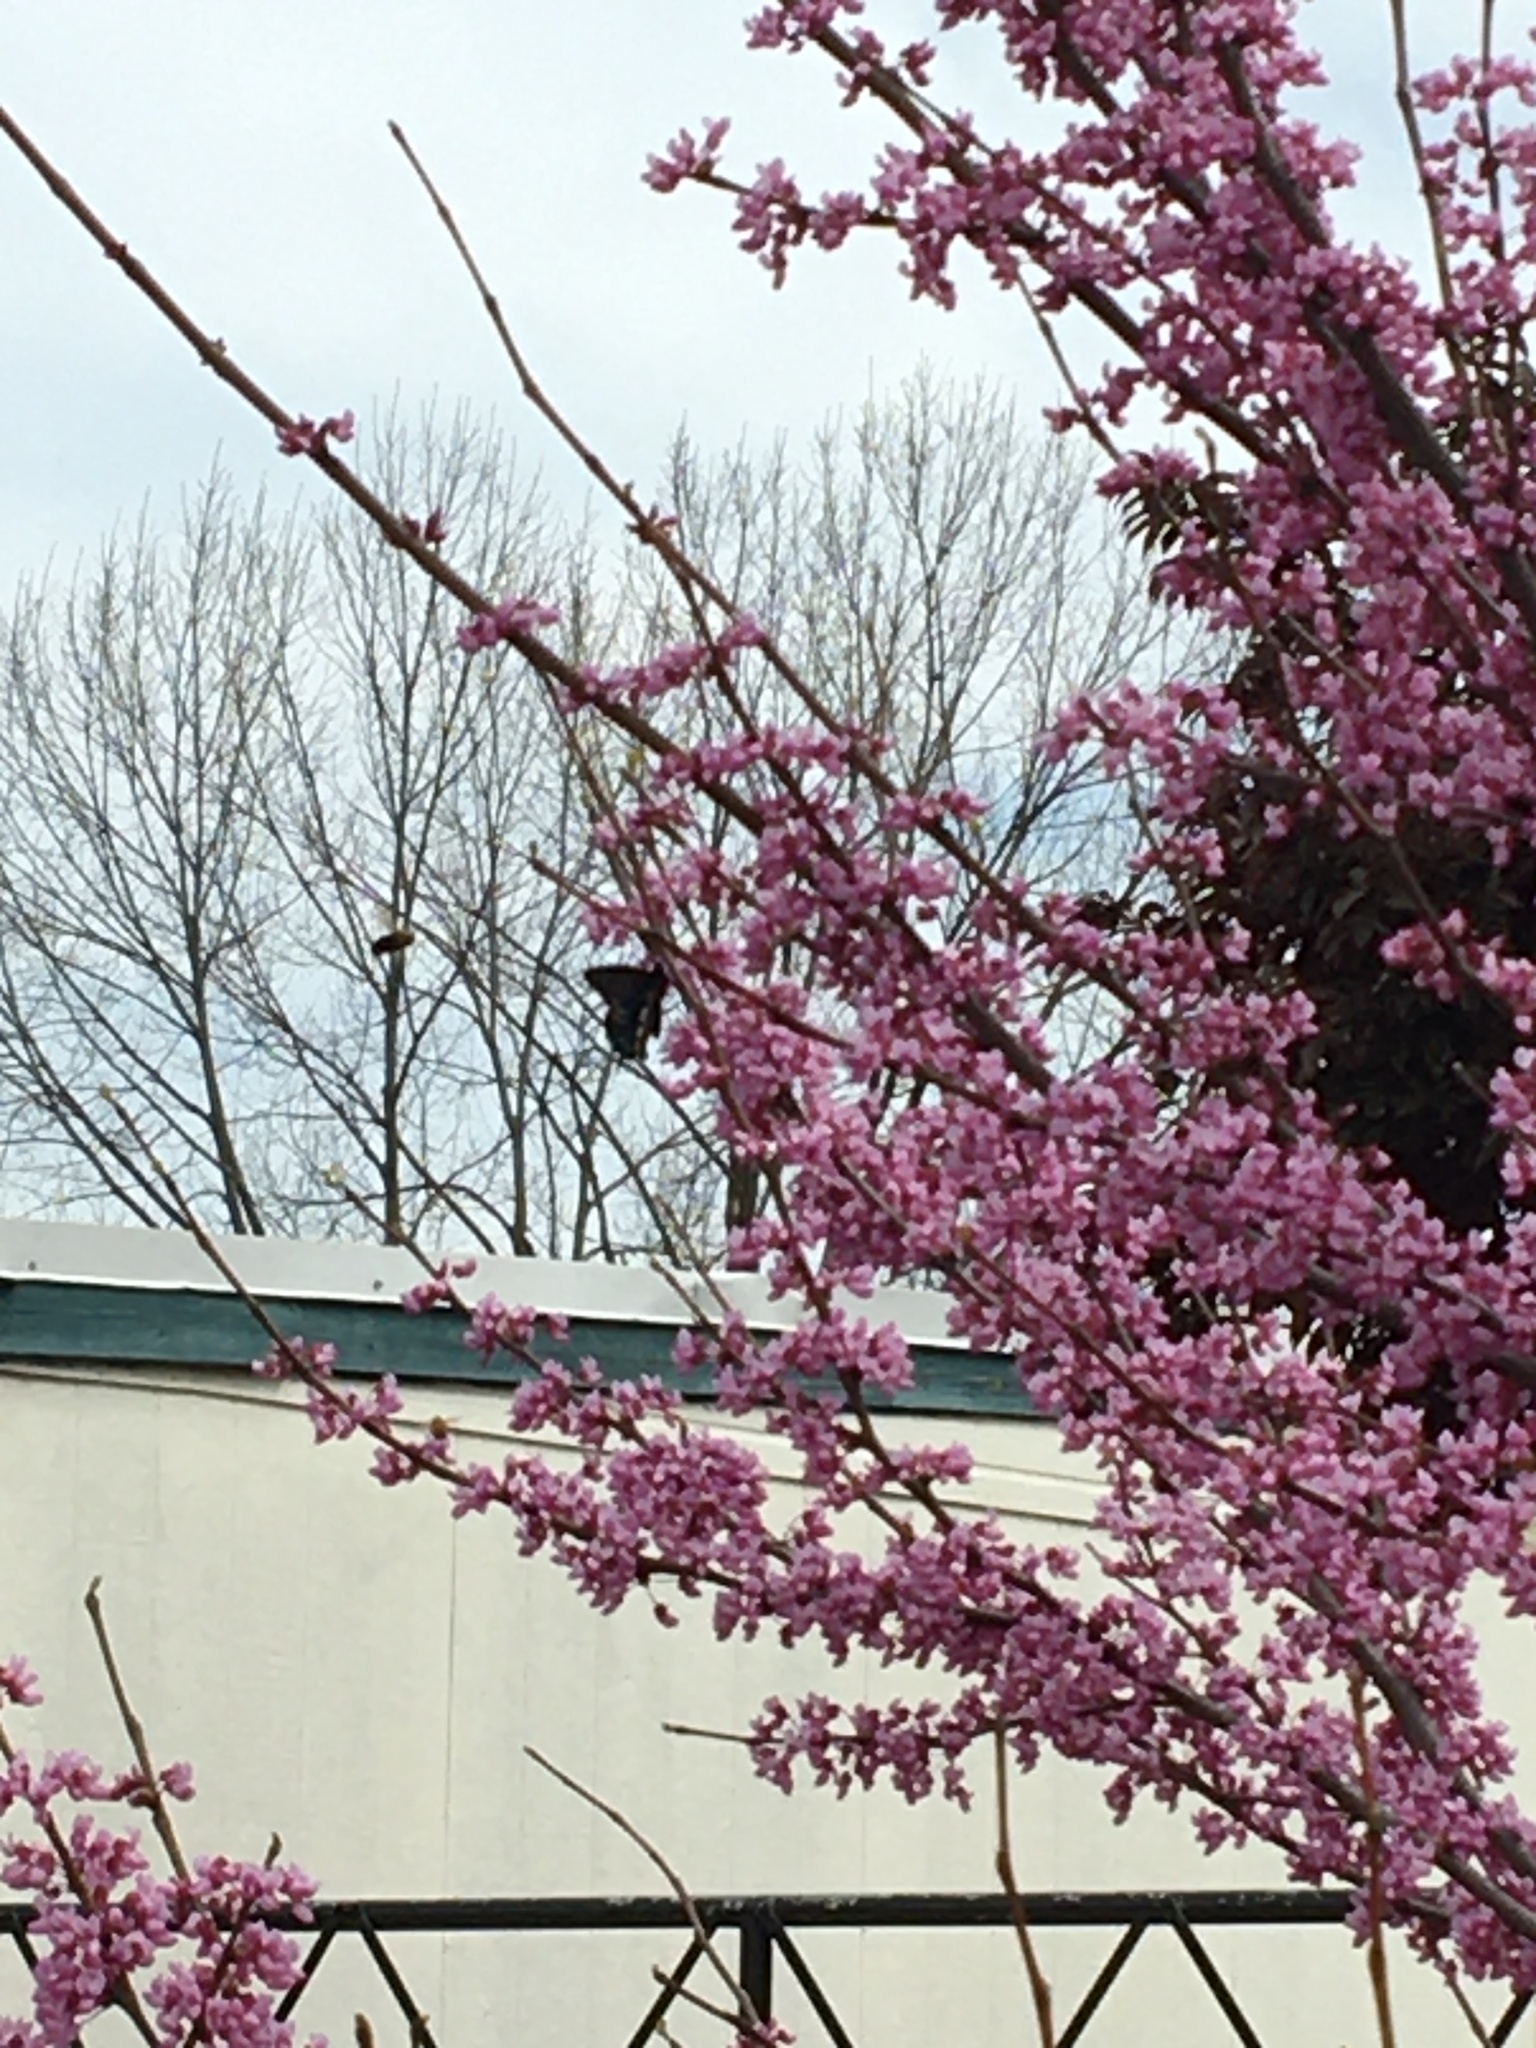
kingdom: Animalia
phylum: Arthropoda
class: Insecta
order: Lepidoptera
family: Papilionidae
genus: Battus
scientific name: Battus philenor
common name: Pipevine swallowtail
